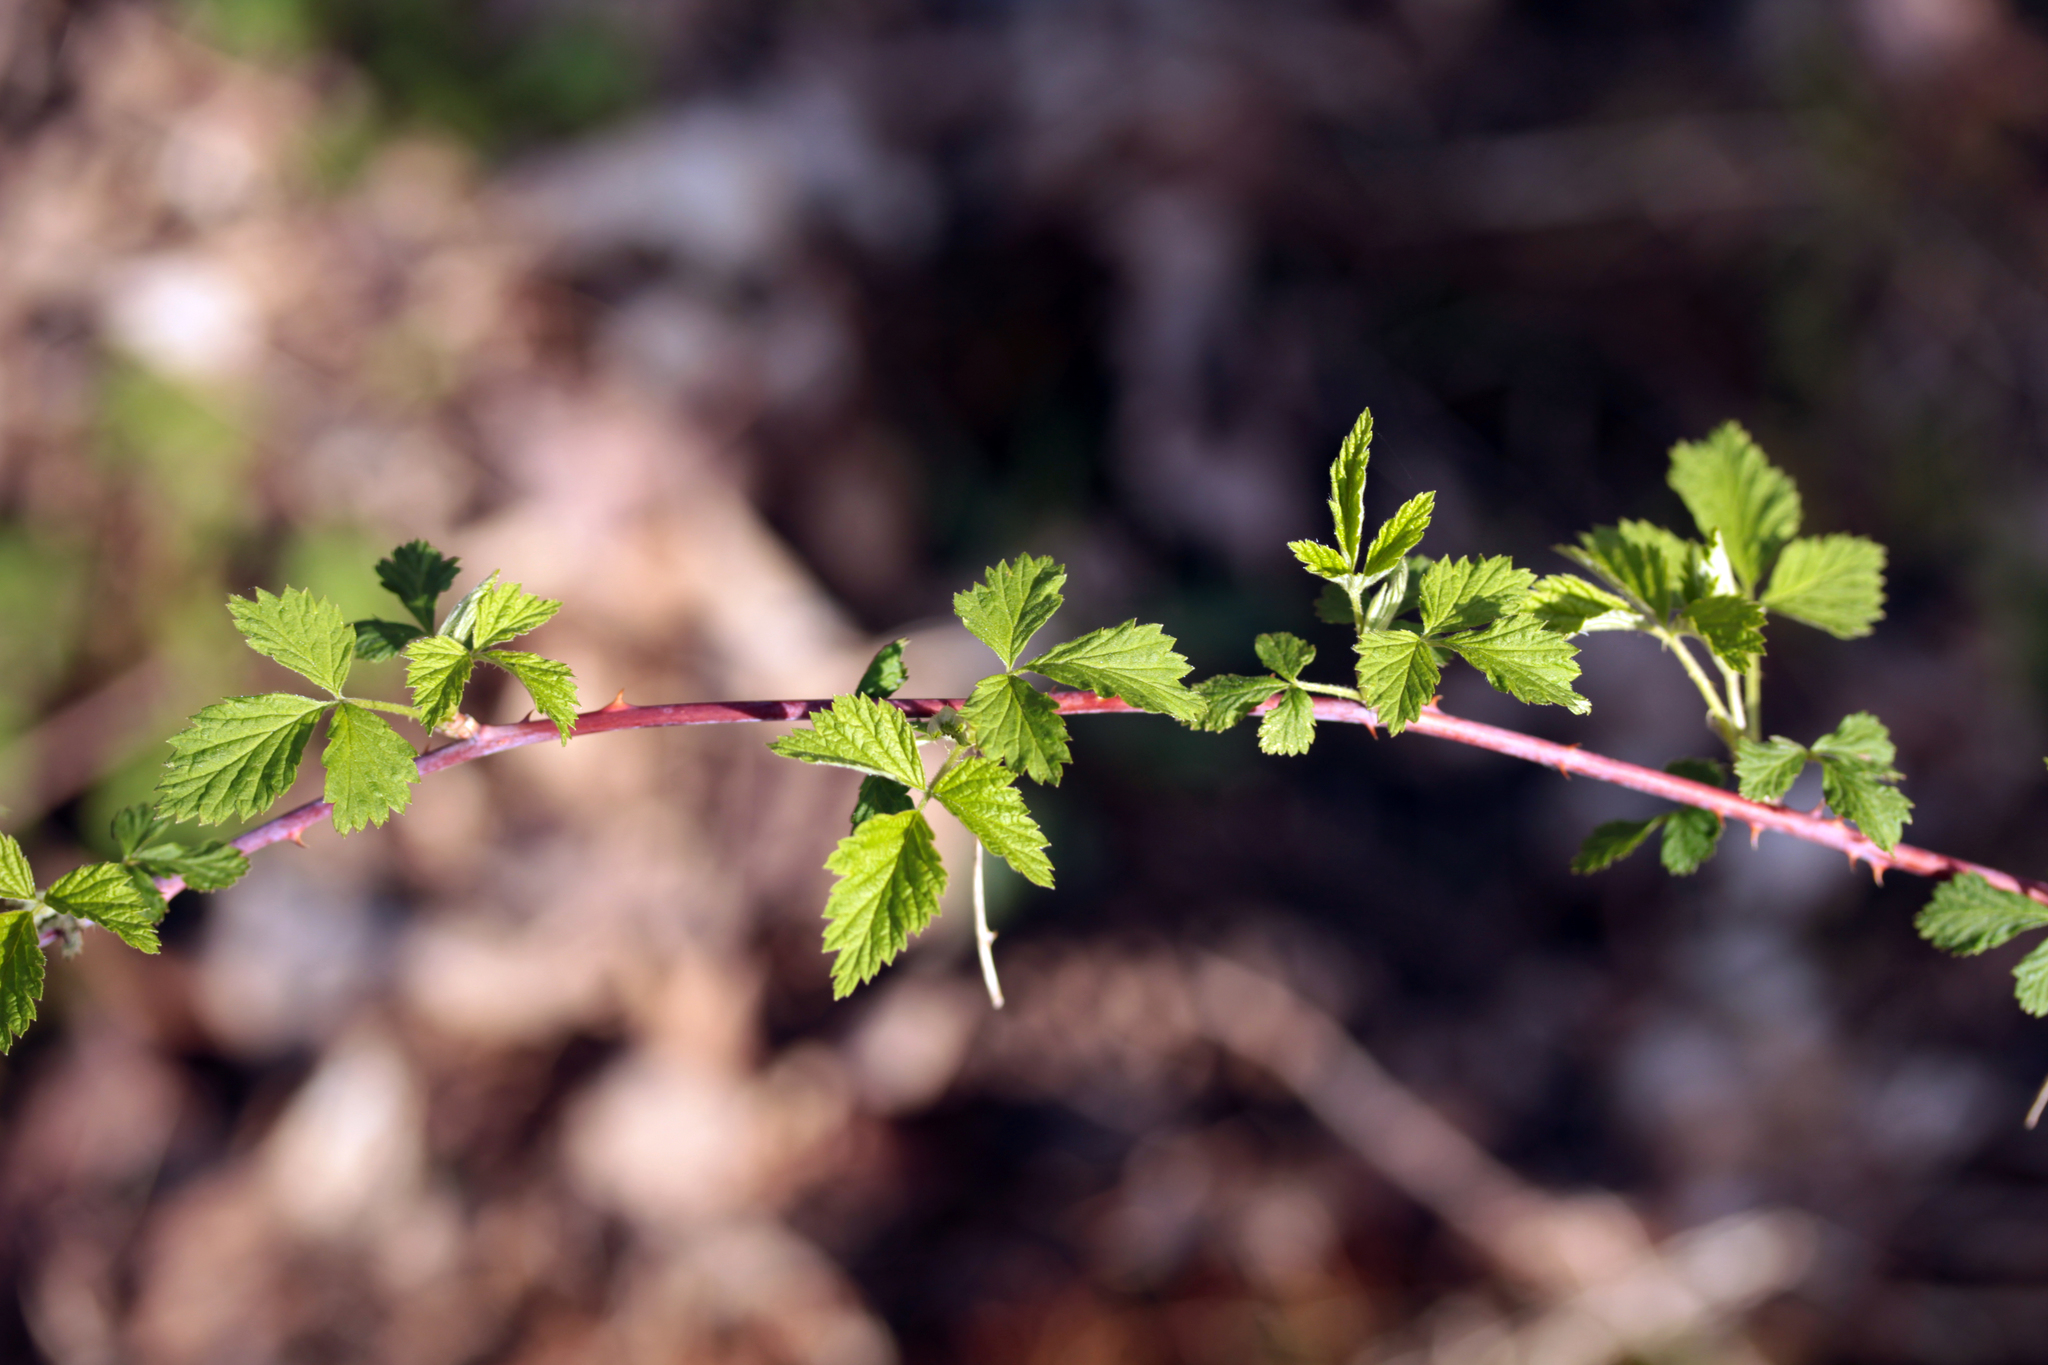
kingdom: Plantae
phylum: Tracheophyta
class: Magnoliopsida
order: Rosales
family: Rosaceae
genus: Rubus
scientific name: Rubus occidentalis
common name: Black raspberry
